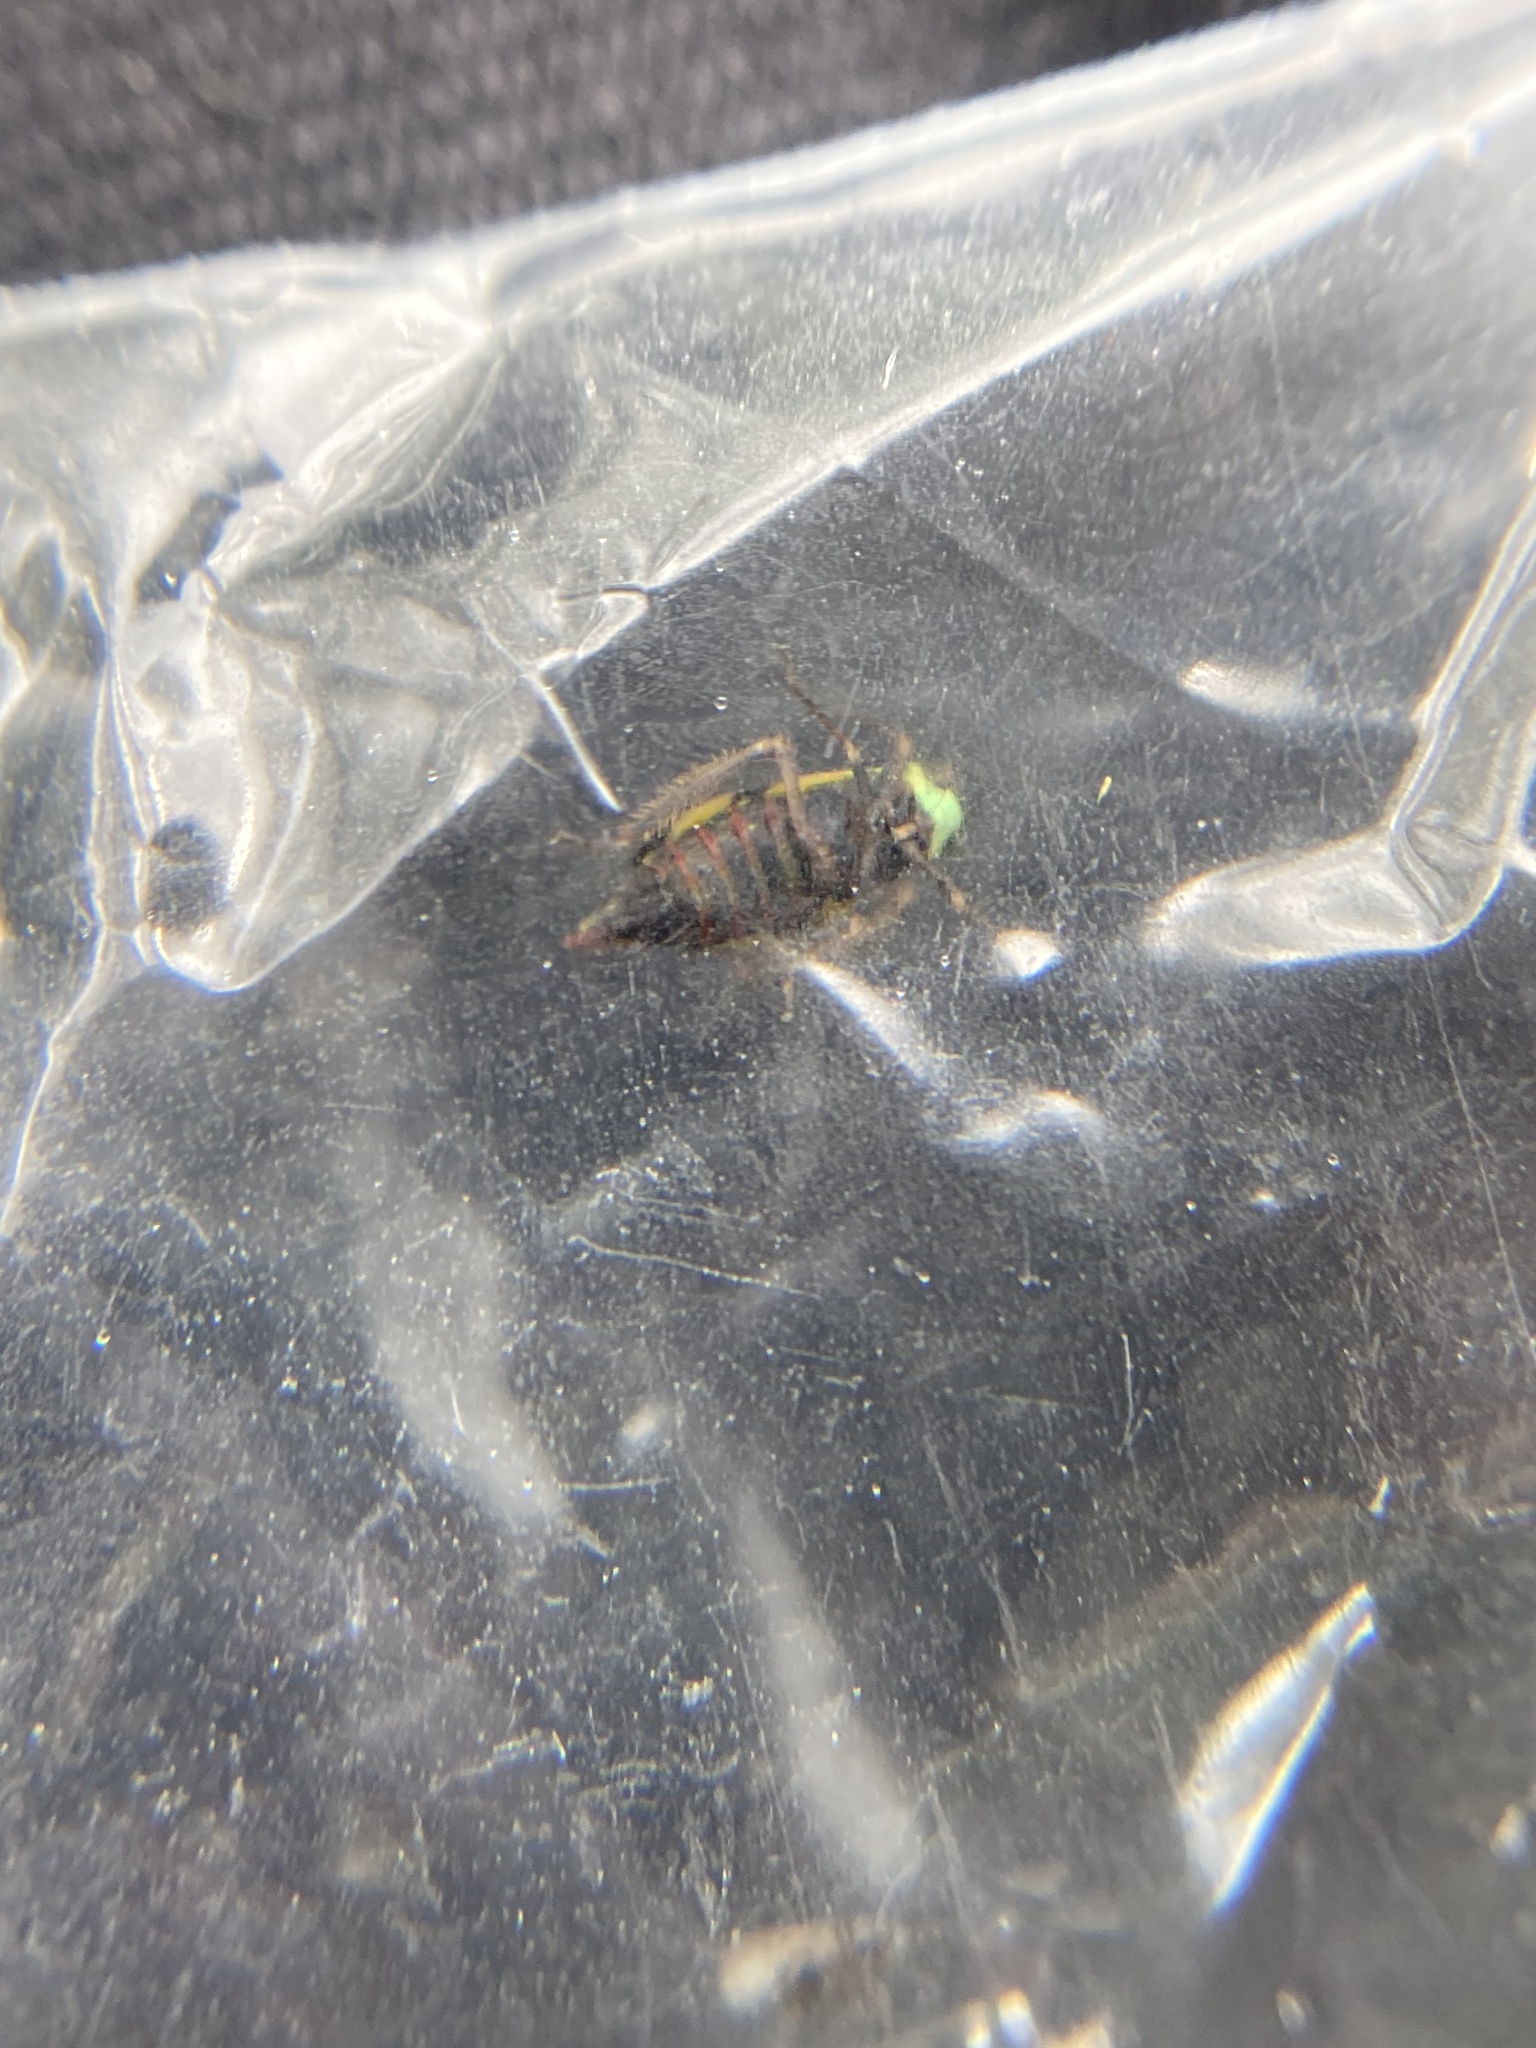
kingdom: Animalia
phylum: Arthropoda
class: Insecta
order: Hemiptera
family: Cicadellidae
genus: Stirellus
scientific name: Stirellus bicolor
